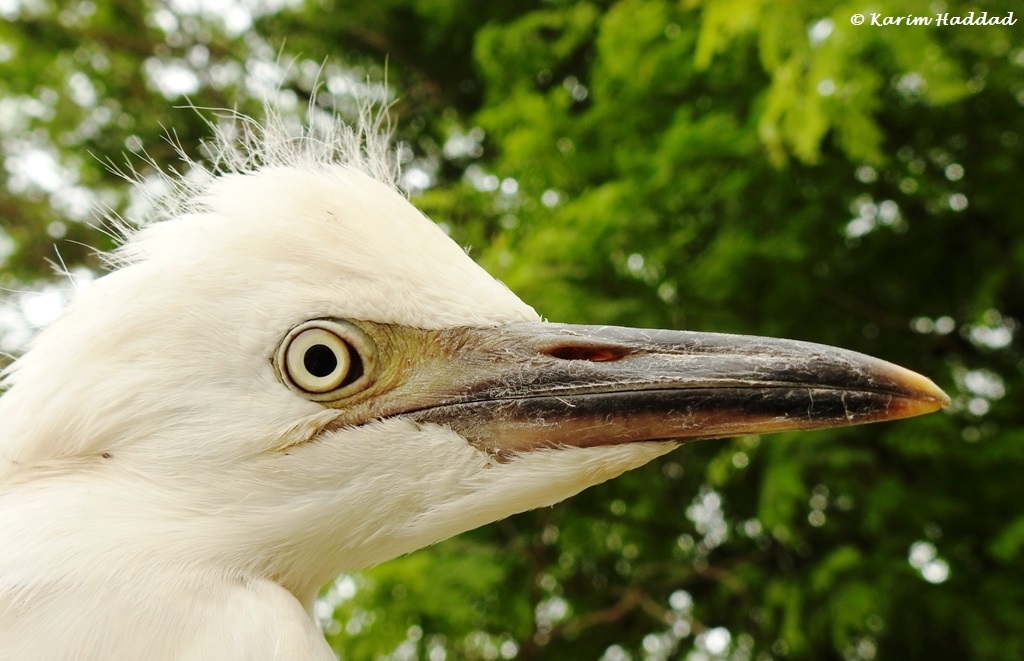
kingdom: Animalia
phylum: Chordata
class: Aves
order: Pelecaniformes
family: Ardeidae
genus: Bubulcus
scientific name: Bubulcus ibis
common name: Cattle egret
